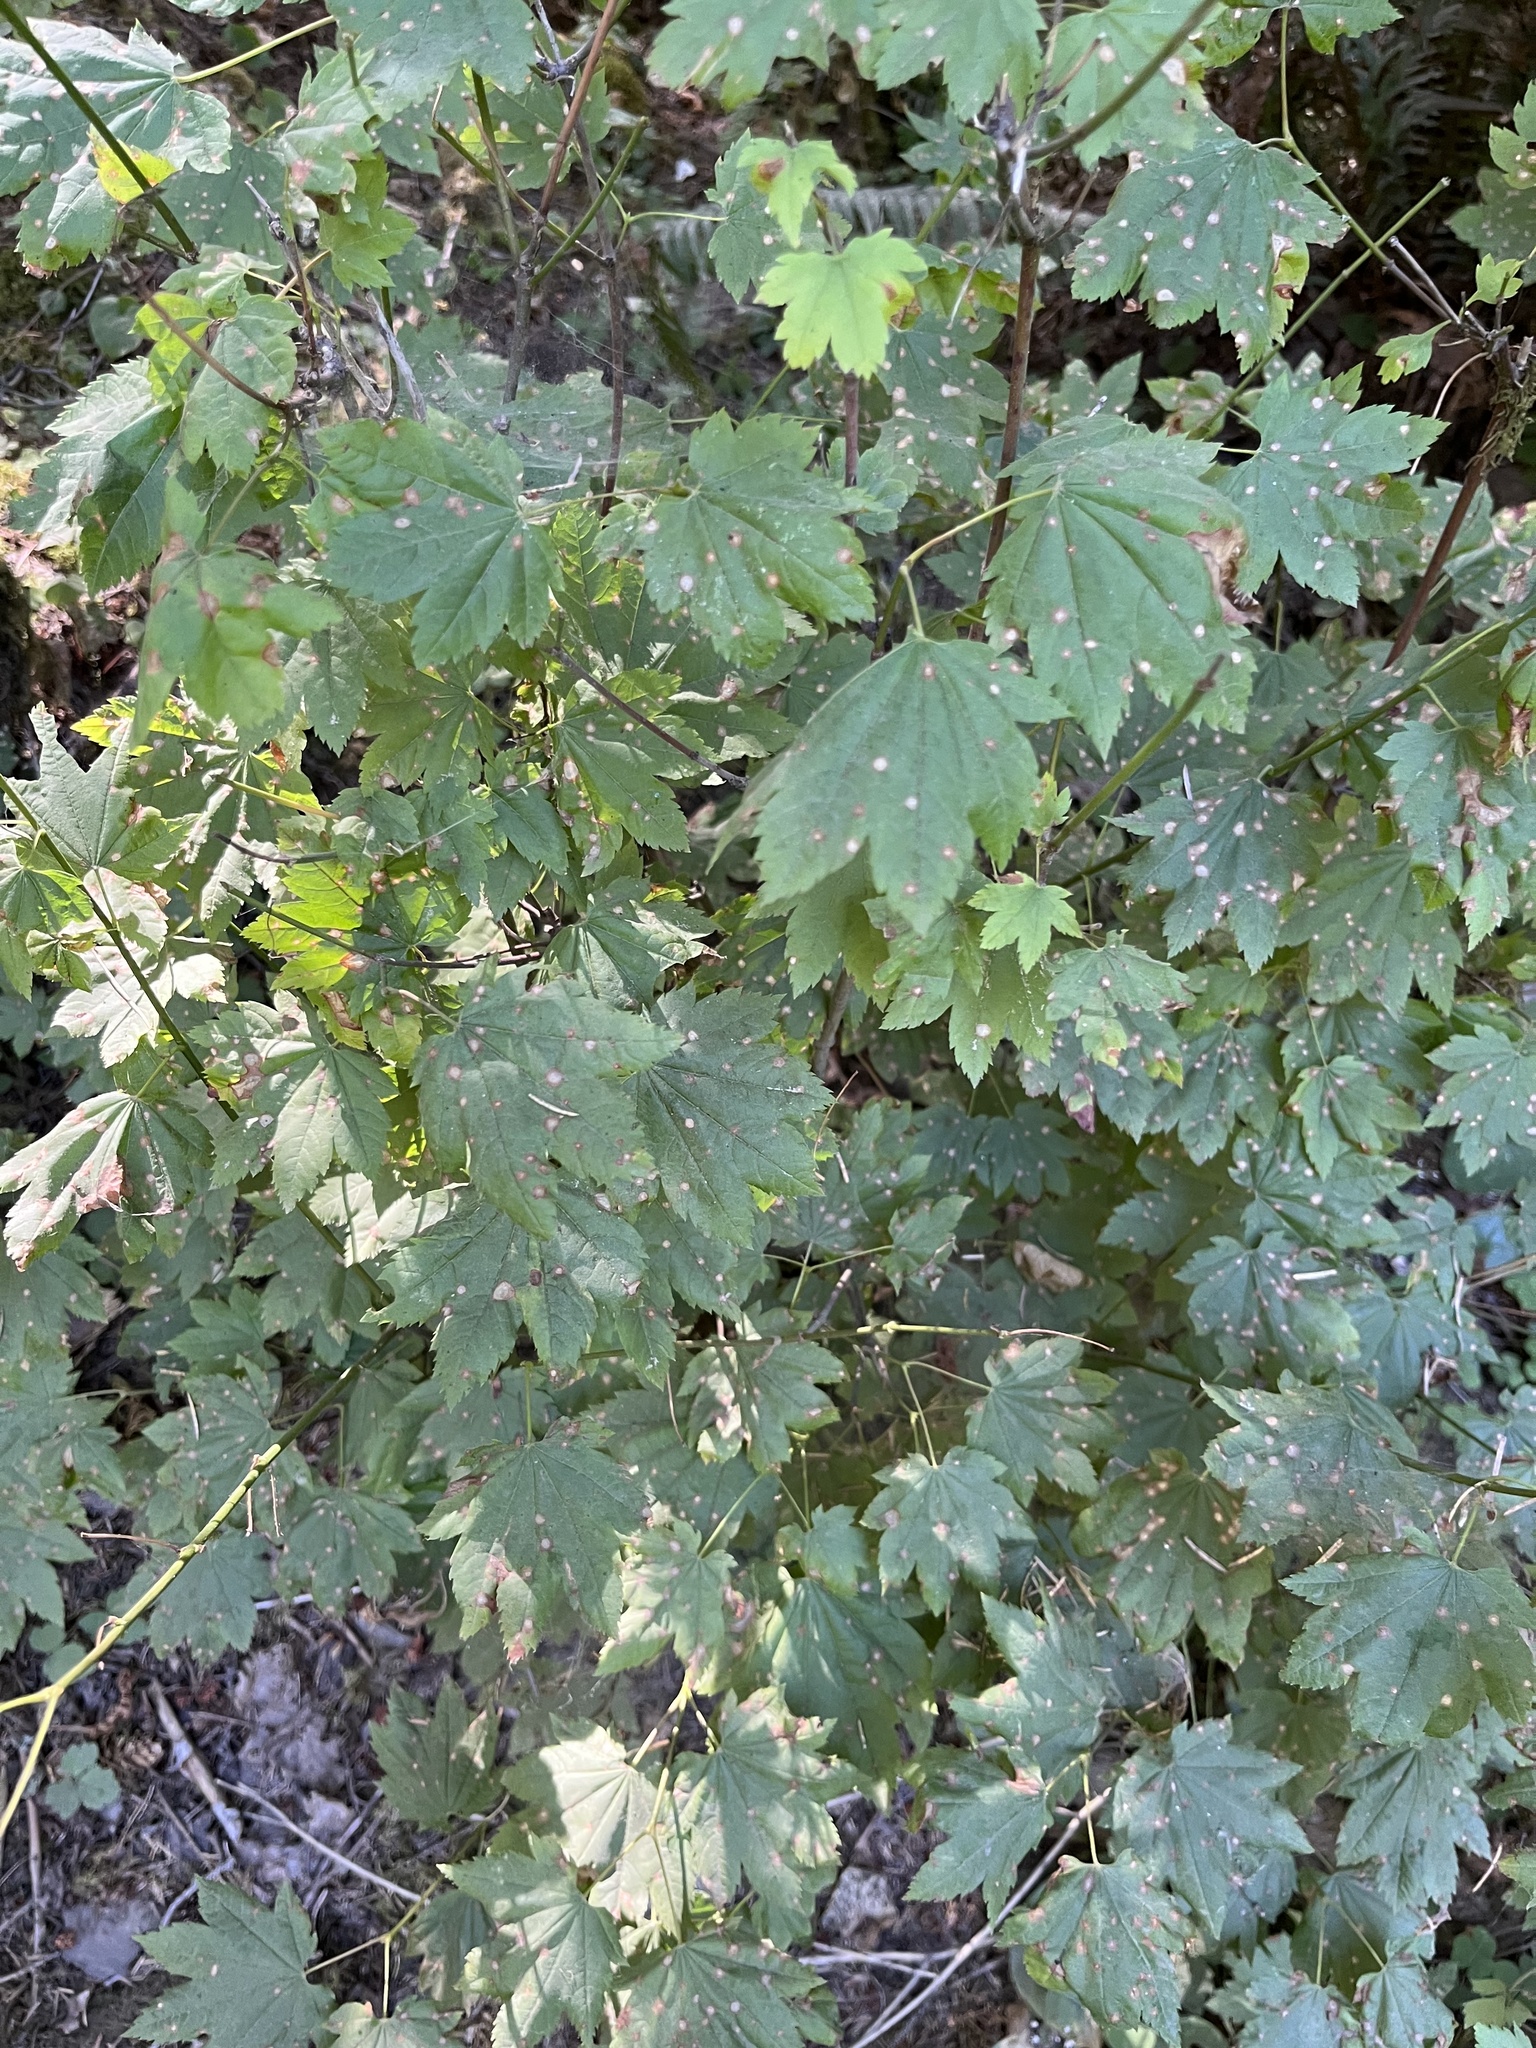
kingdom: Plantae
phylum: Tracheophyta
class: Magnoliopsida
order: Sapindales
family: Sapindaceae
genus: Acer
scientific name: Acer circinatum
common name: Vine maple
